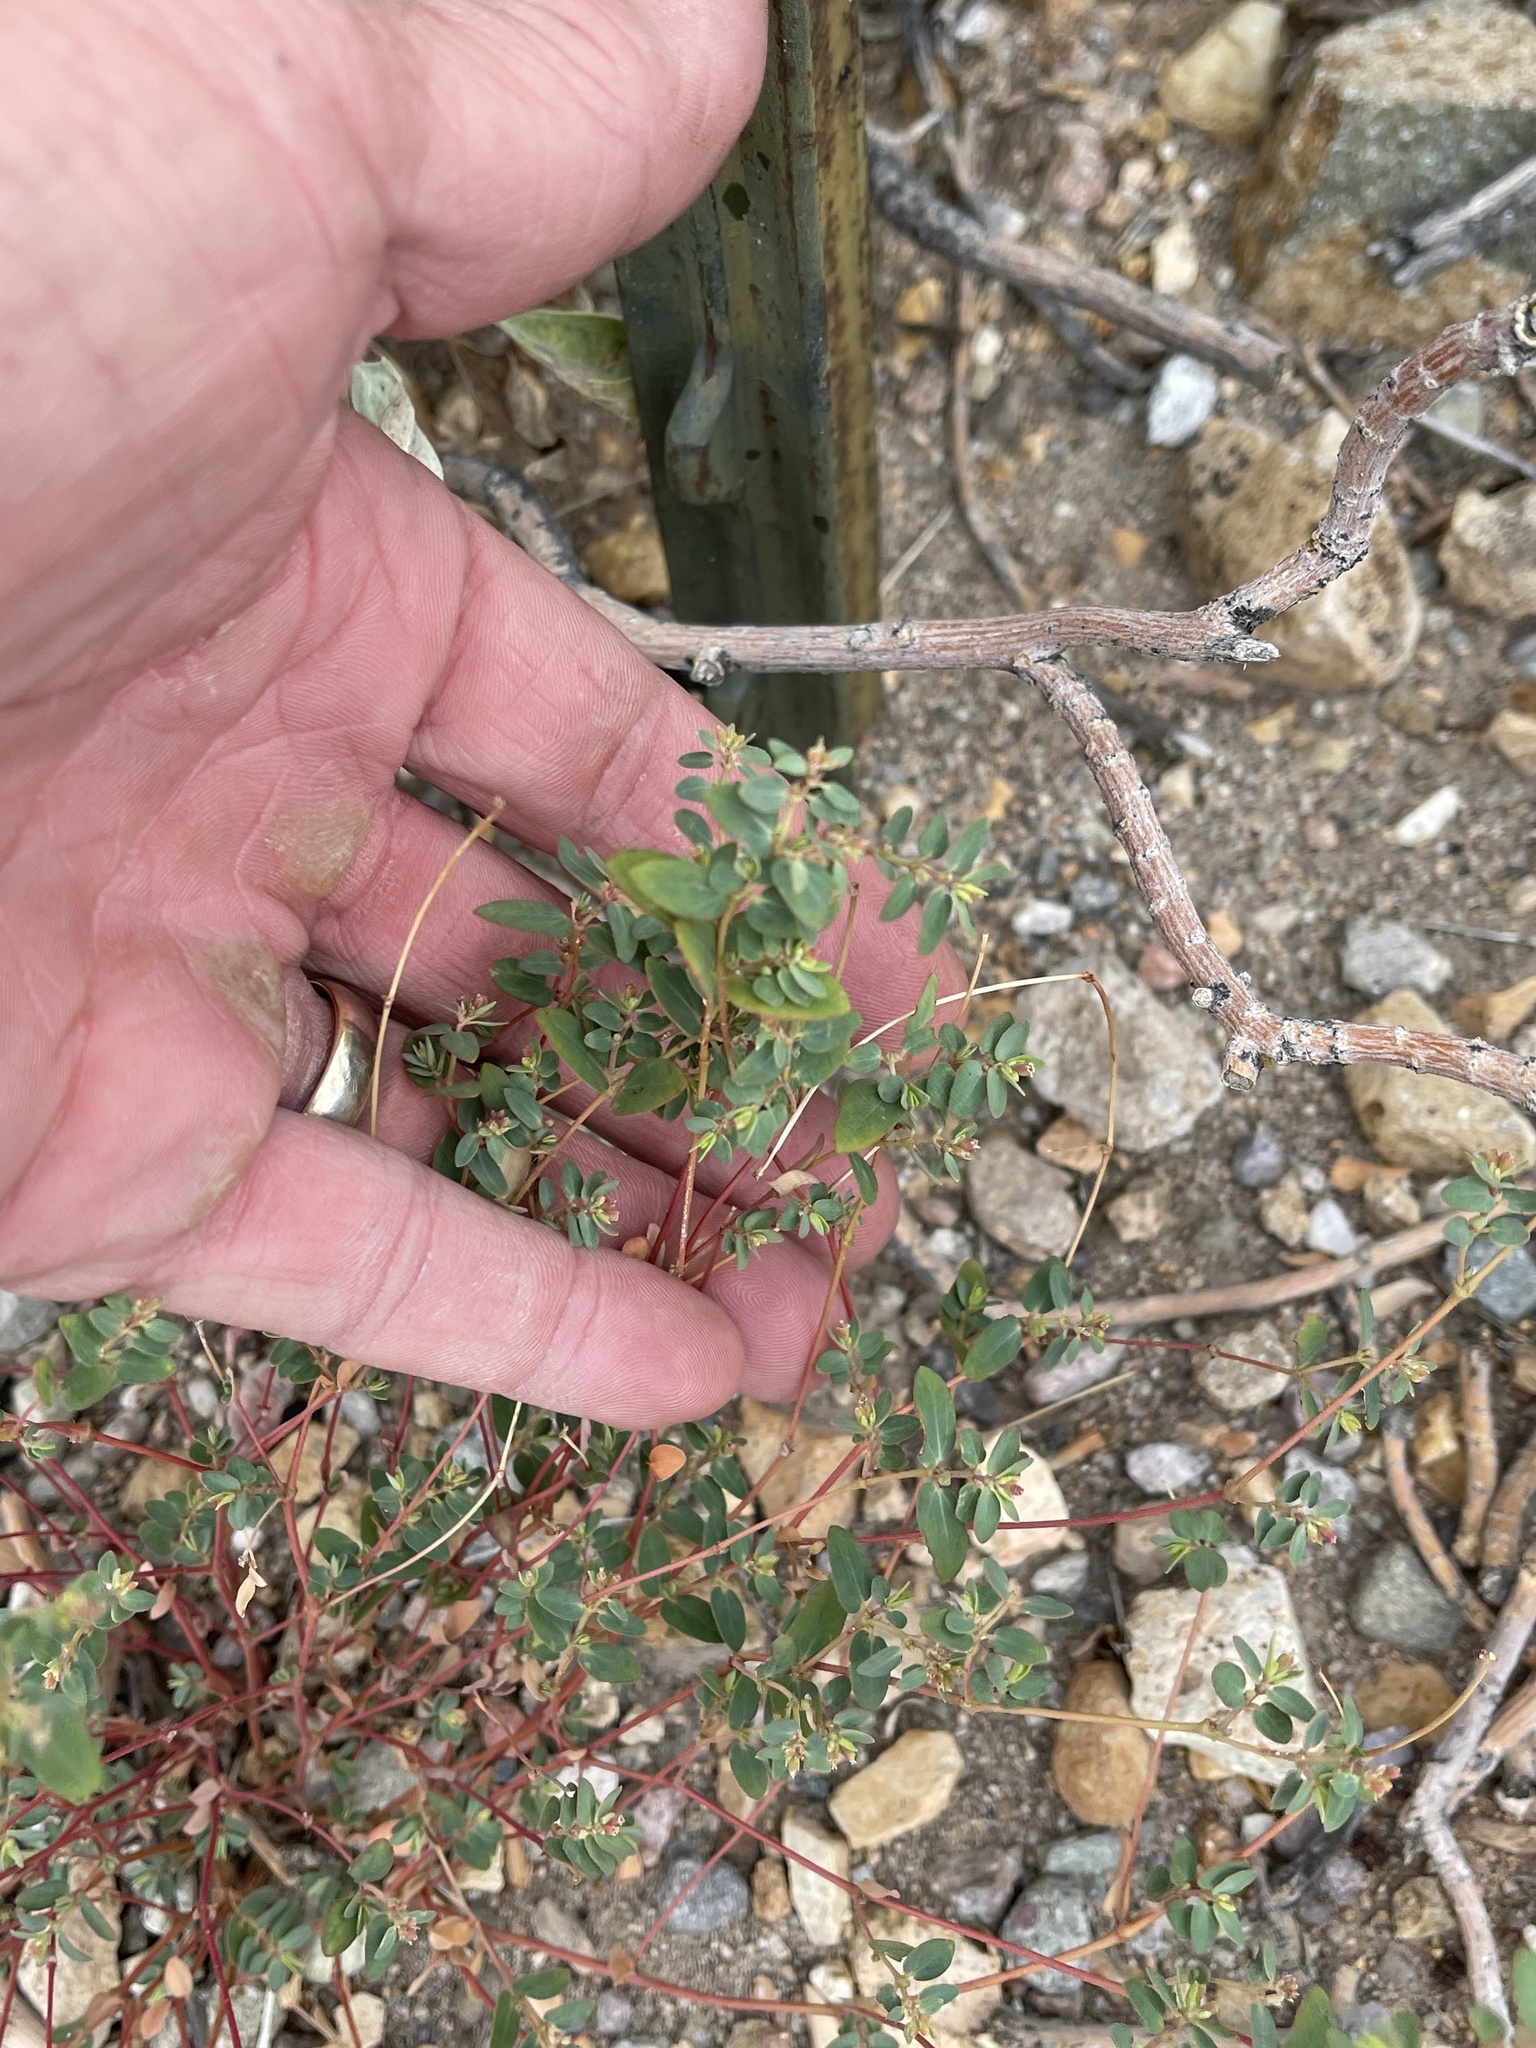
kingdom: Plantae
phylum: Tracheophyta
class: Magnoliopsida
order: Malpighiales
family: Euphorbiaceae
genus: Euphorbia
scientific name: Euphorbia capitellata
